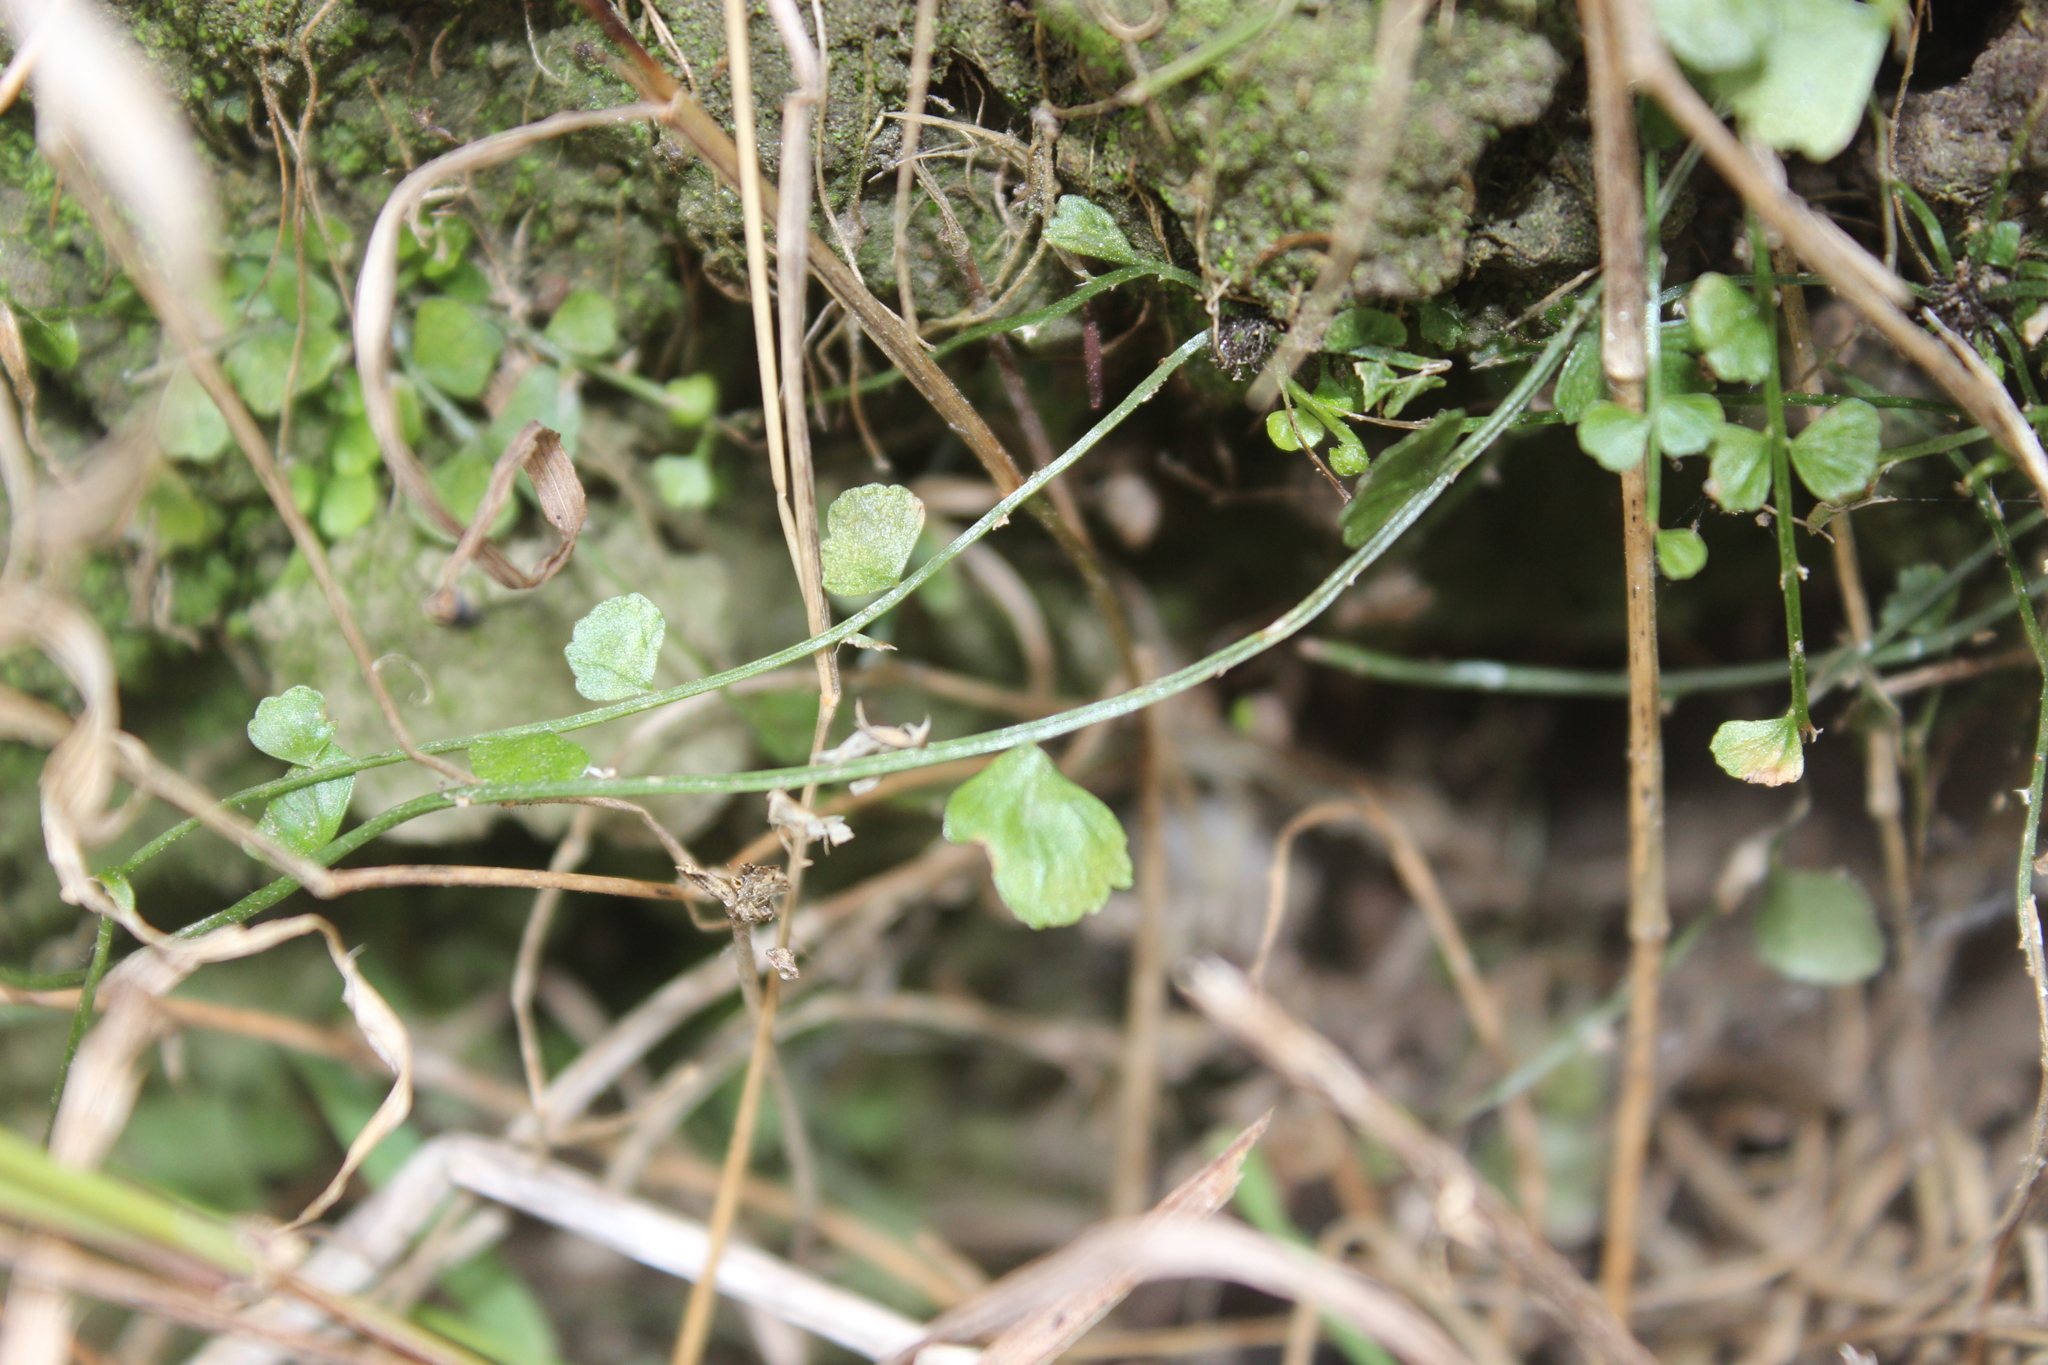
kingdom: Plantae
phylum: Tracheophyta
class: Polypodiopsida
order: Polypodiales
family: Aspleniaceae
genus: Asplenium
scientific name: Asplenium flabellifolium
